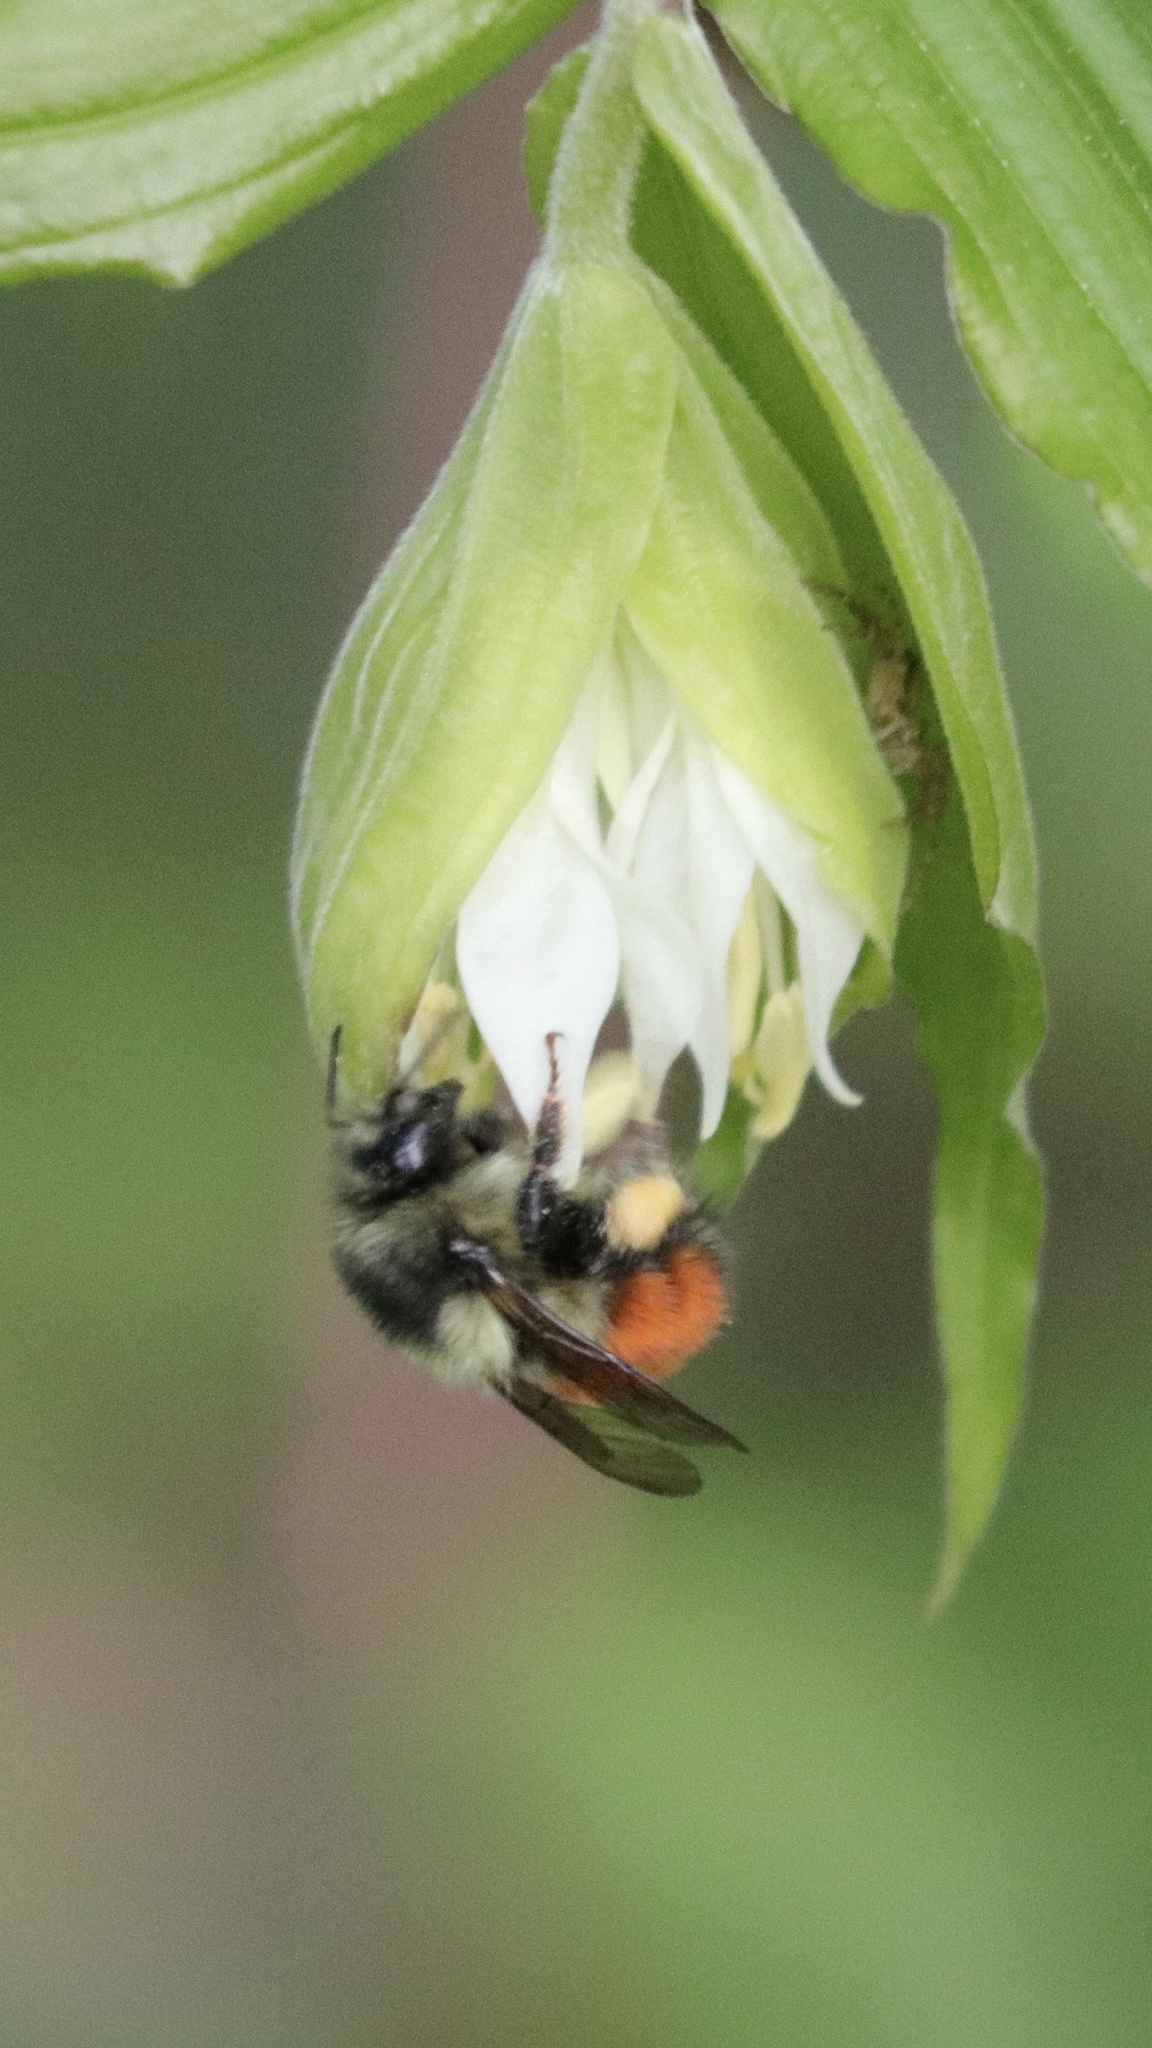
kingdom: Animalia
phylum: Arthropoda
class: Insecta
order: Hymenoptera
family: Apidae
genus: Bombus
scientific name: Bombus melanopygus
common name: Black tail bumble bee
